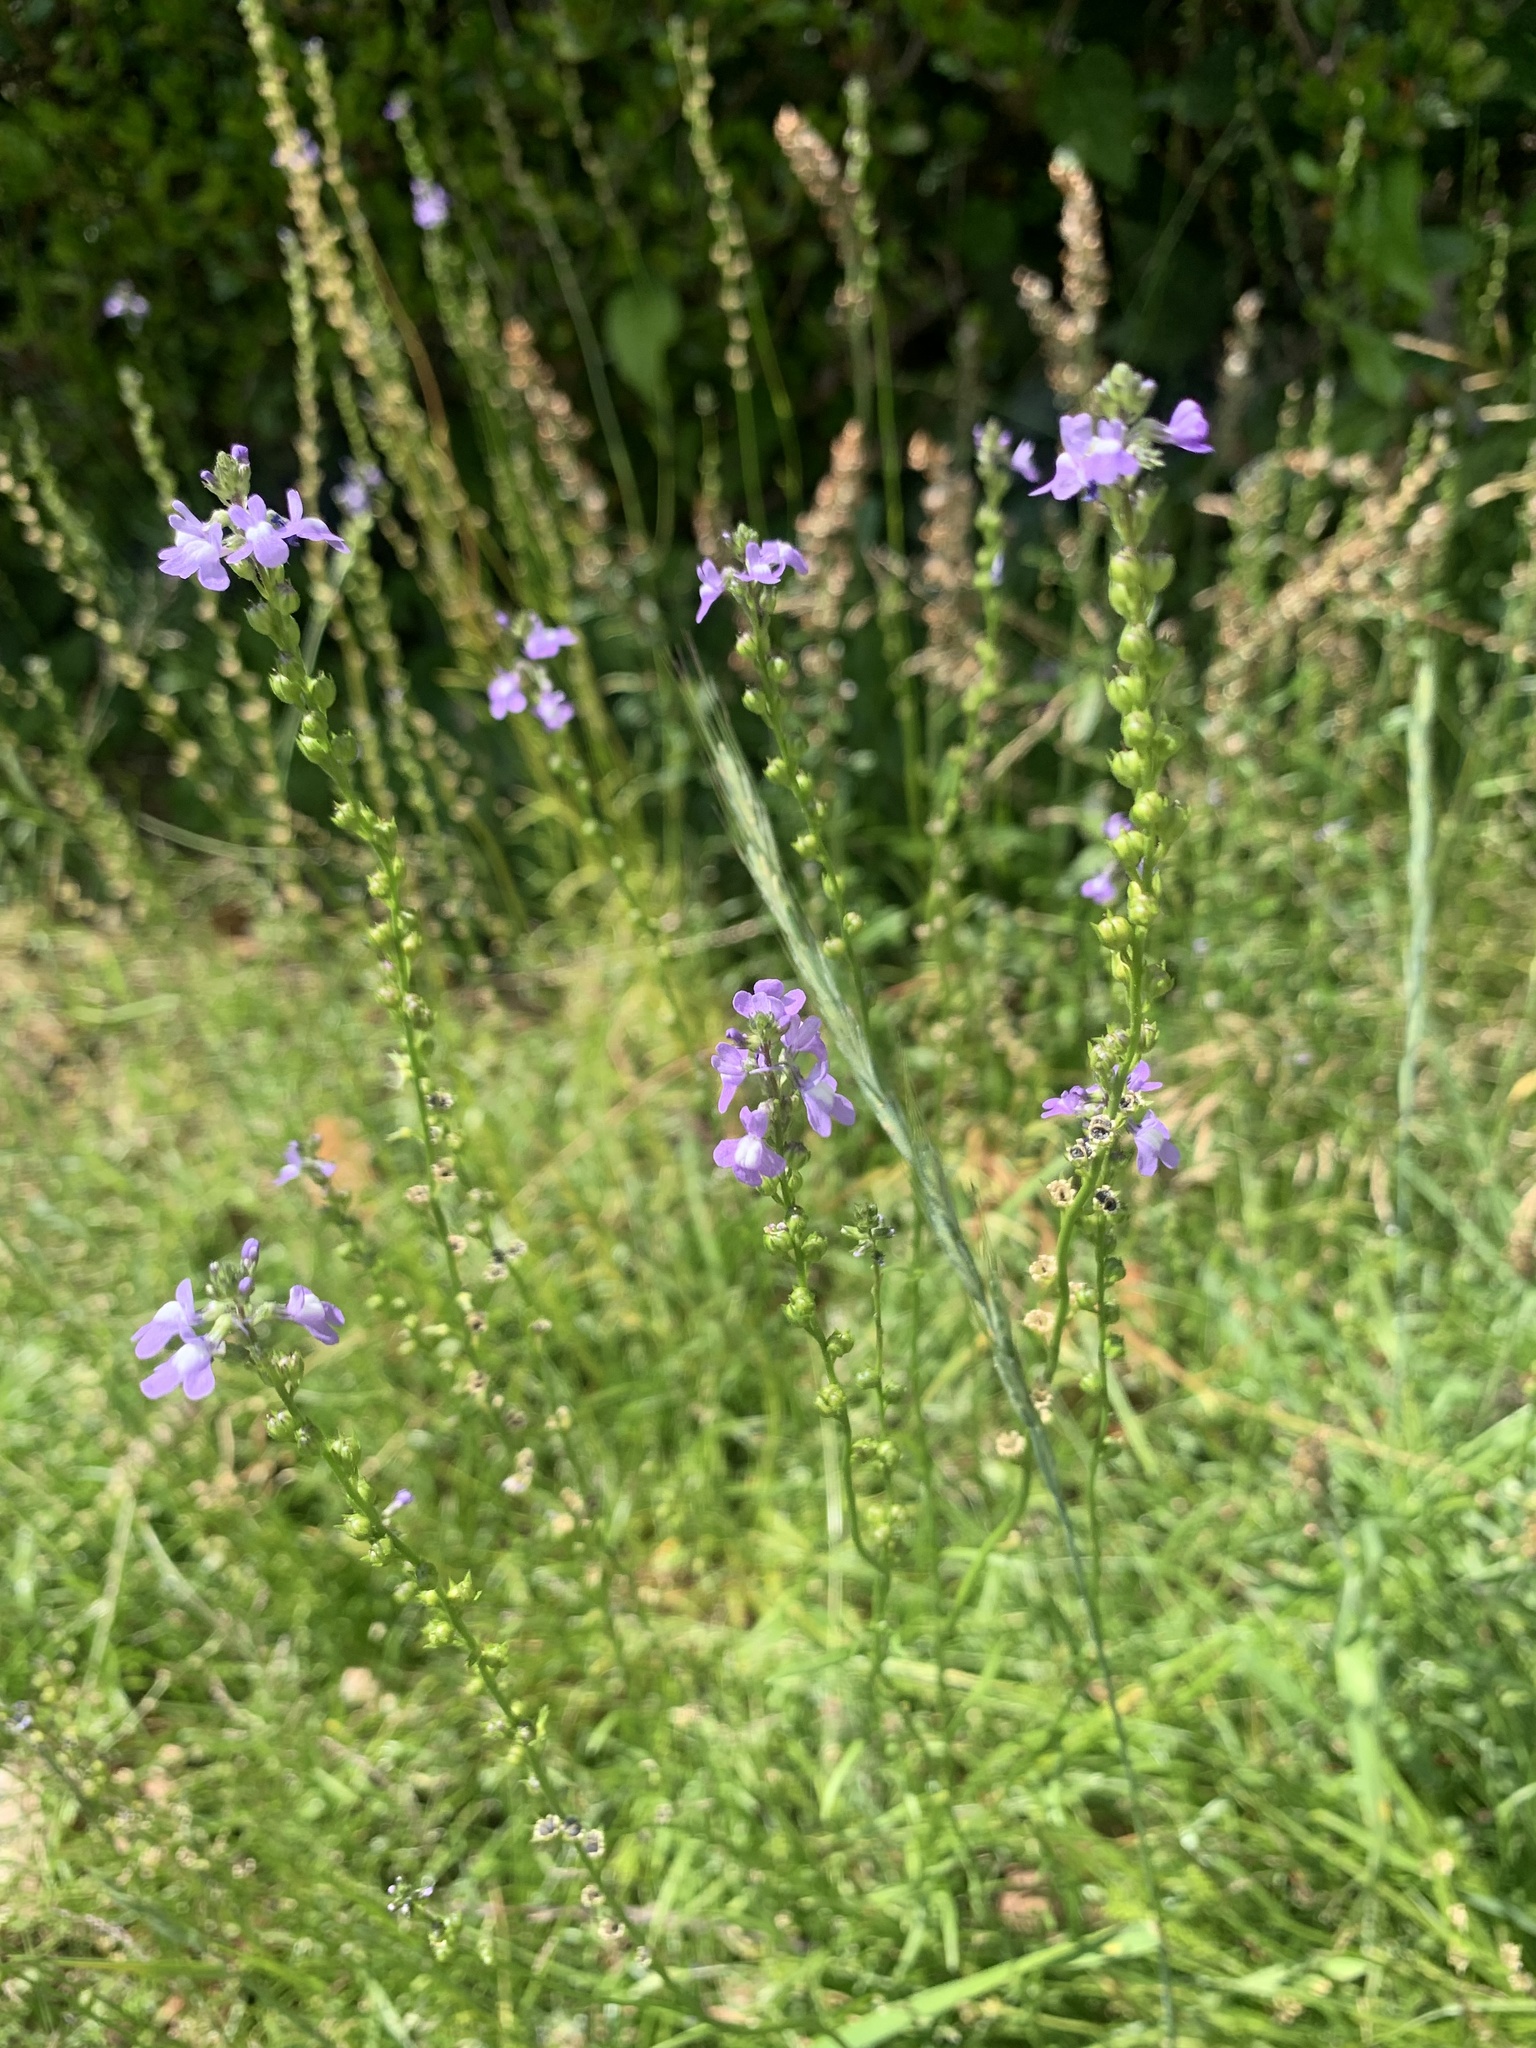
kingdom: Plantae
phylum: Tracheophyta
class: Magnoliopsida
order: Lamiales
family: Plantaginaceae
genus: Nuttallanthus
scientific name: Nuttallanthus canadensis
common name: Blue toadflax
